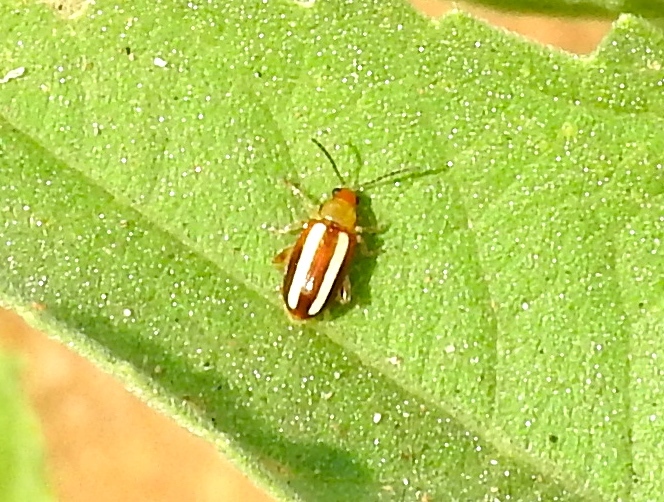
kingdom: Animalia
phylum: Arthropoda
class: Insecta
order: Coleoptera
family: Chrysomelidae
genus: Systena
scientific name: Systena
